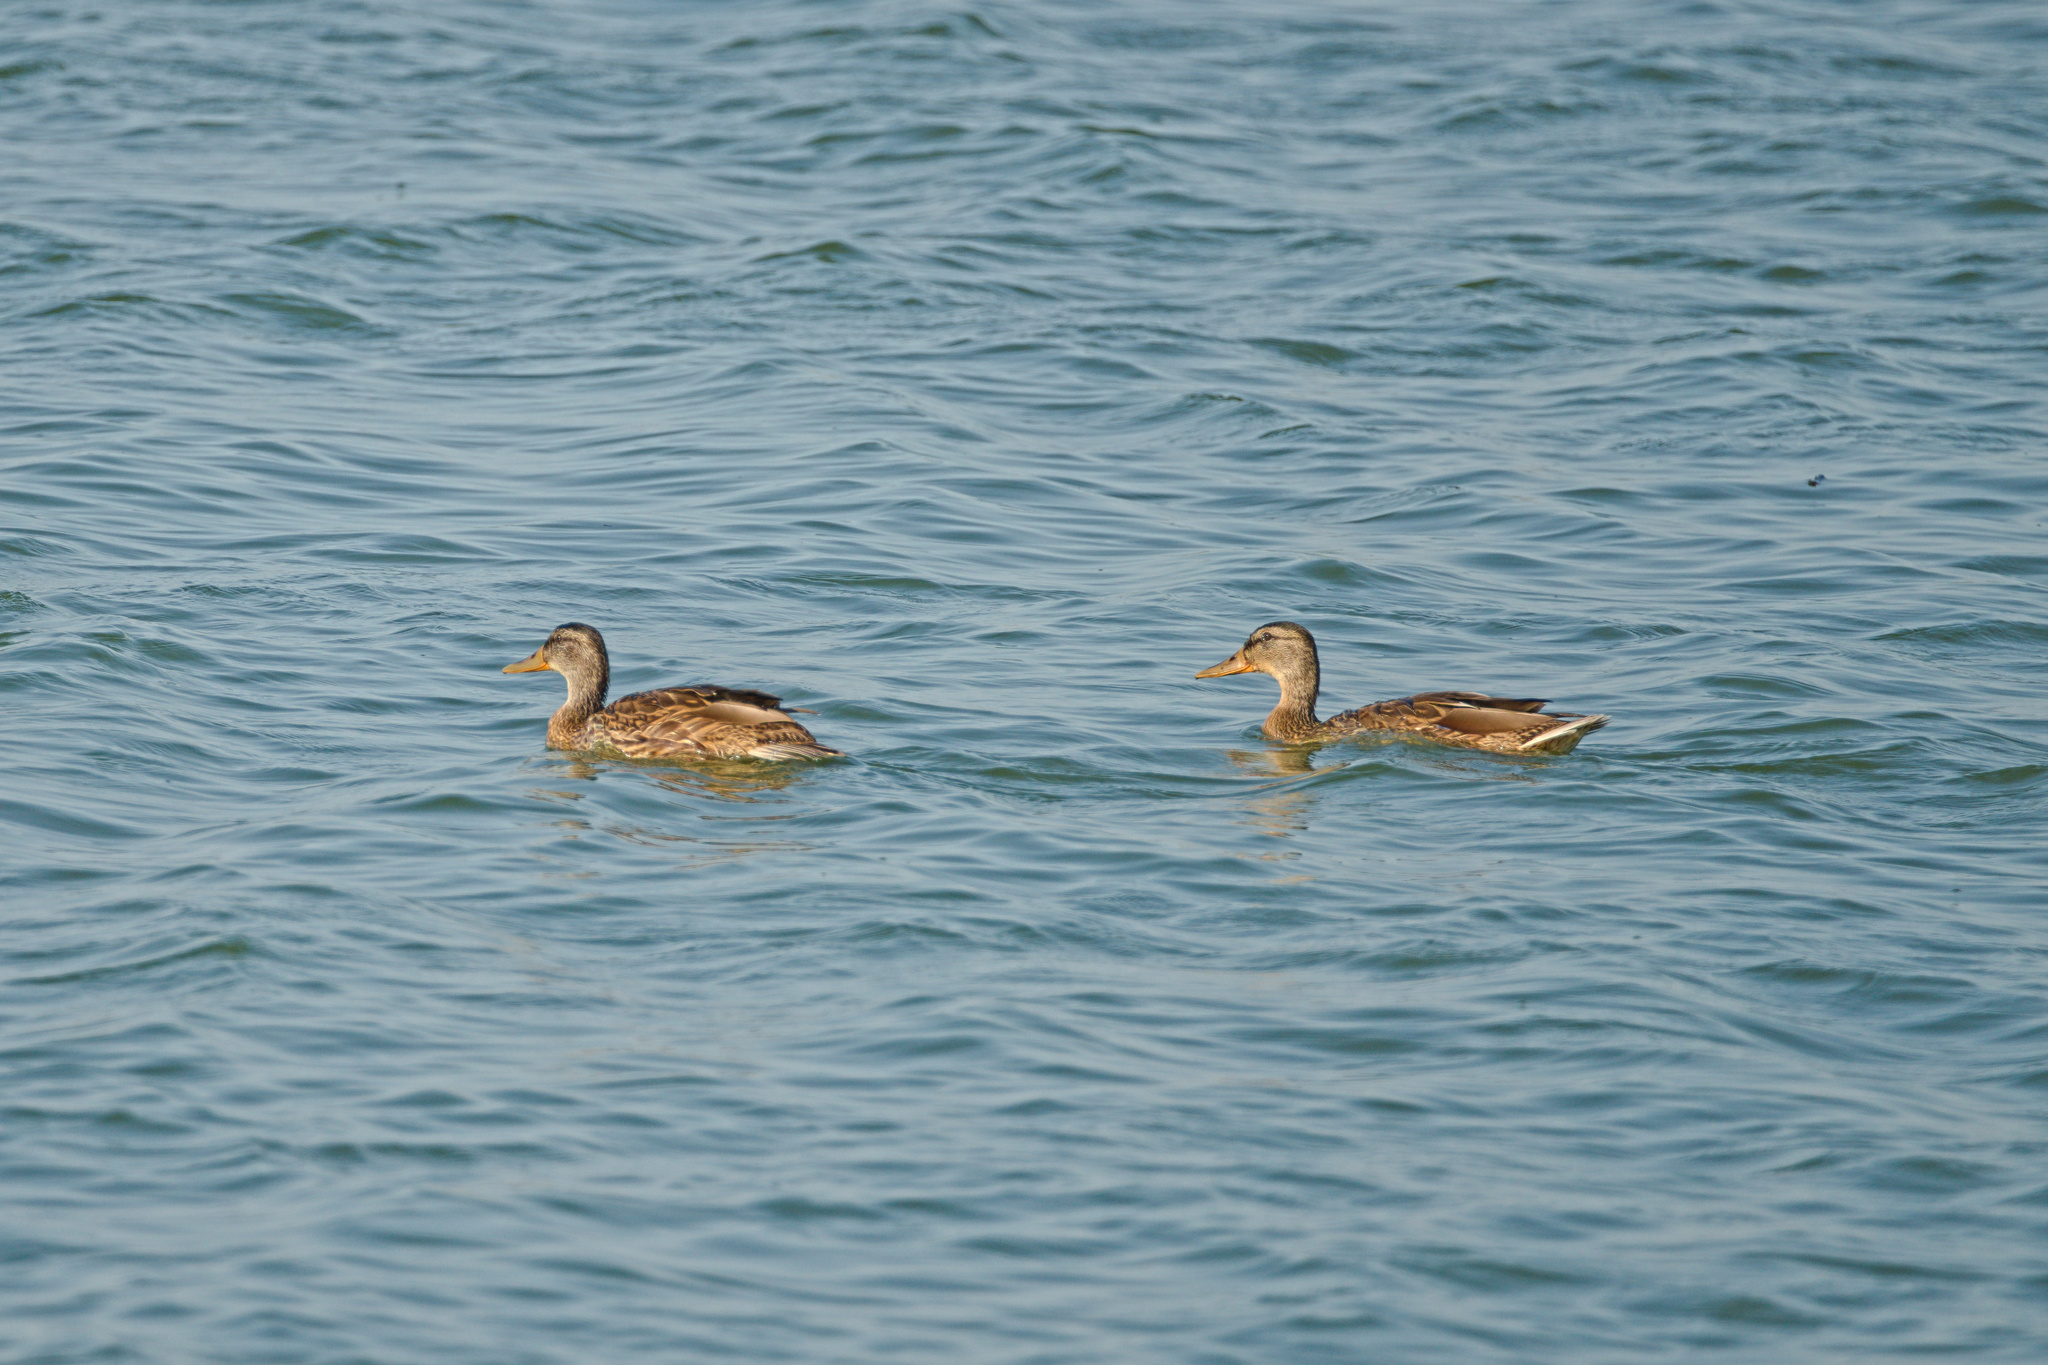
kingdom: Animalia
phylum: Chordata
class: Aves
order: Anseriformes
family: Anatidae
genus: Anas
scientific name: Anas platyrhynchos
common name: Mallard
